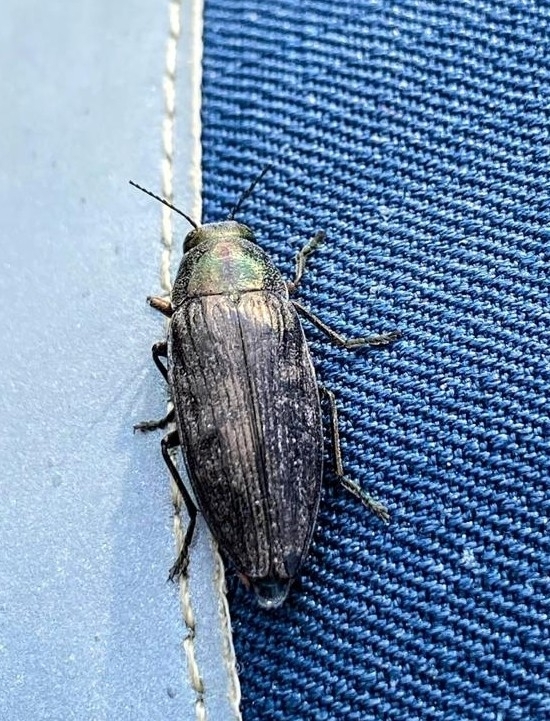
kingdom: Animalia
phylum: Arthropoda
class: Insecta
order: Coleoptera
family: Buprestidae
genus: Buprestis
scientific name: Buprestis haemorrhoidalis
